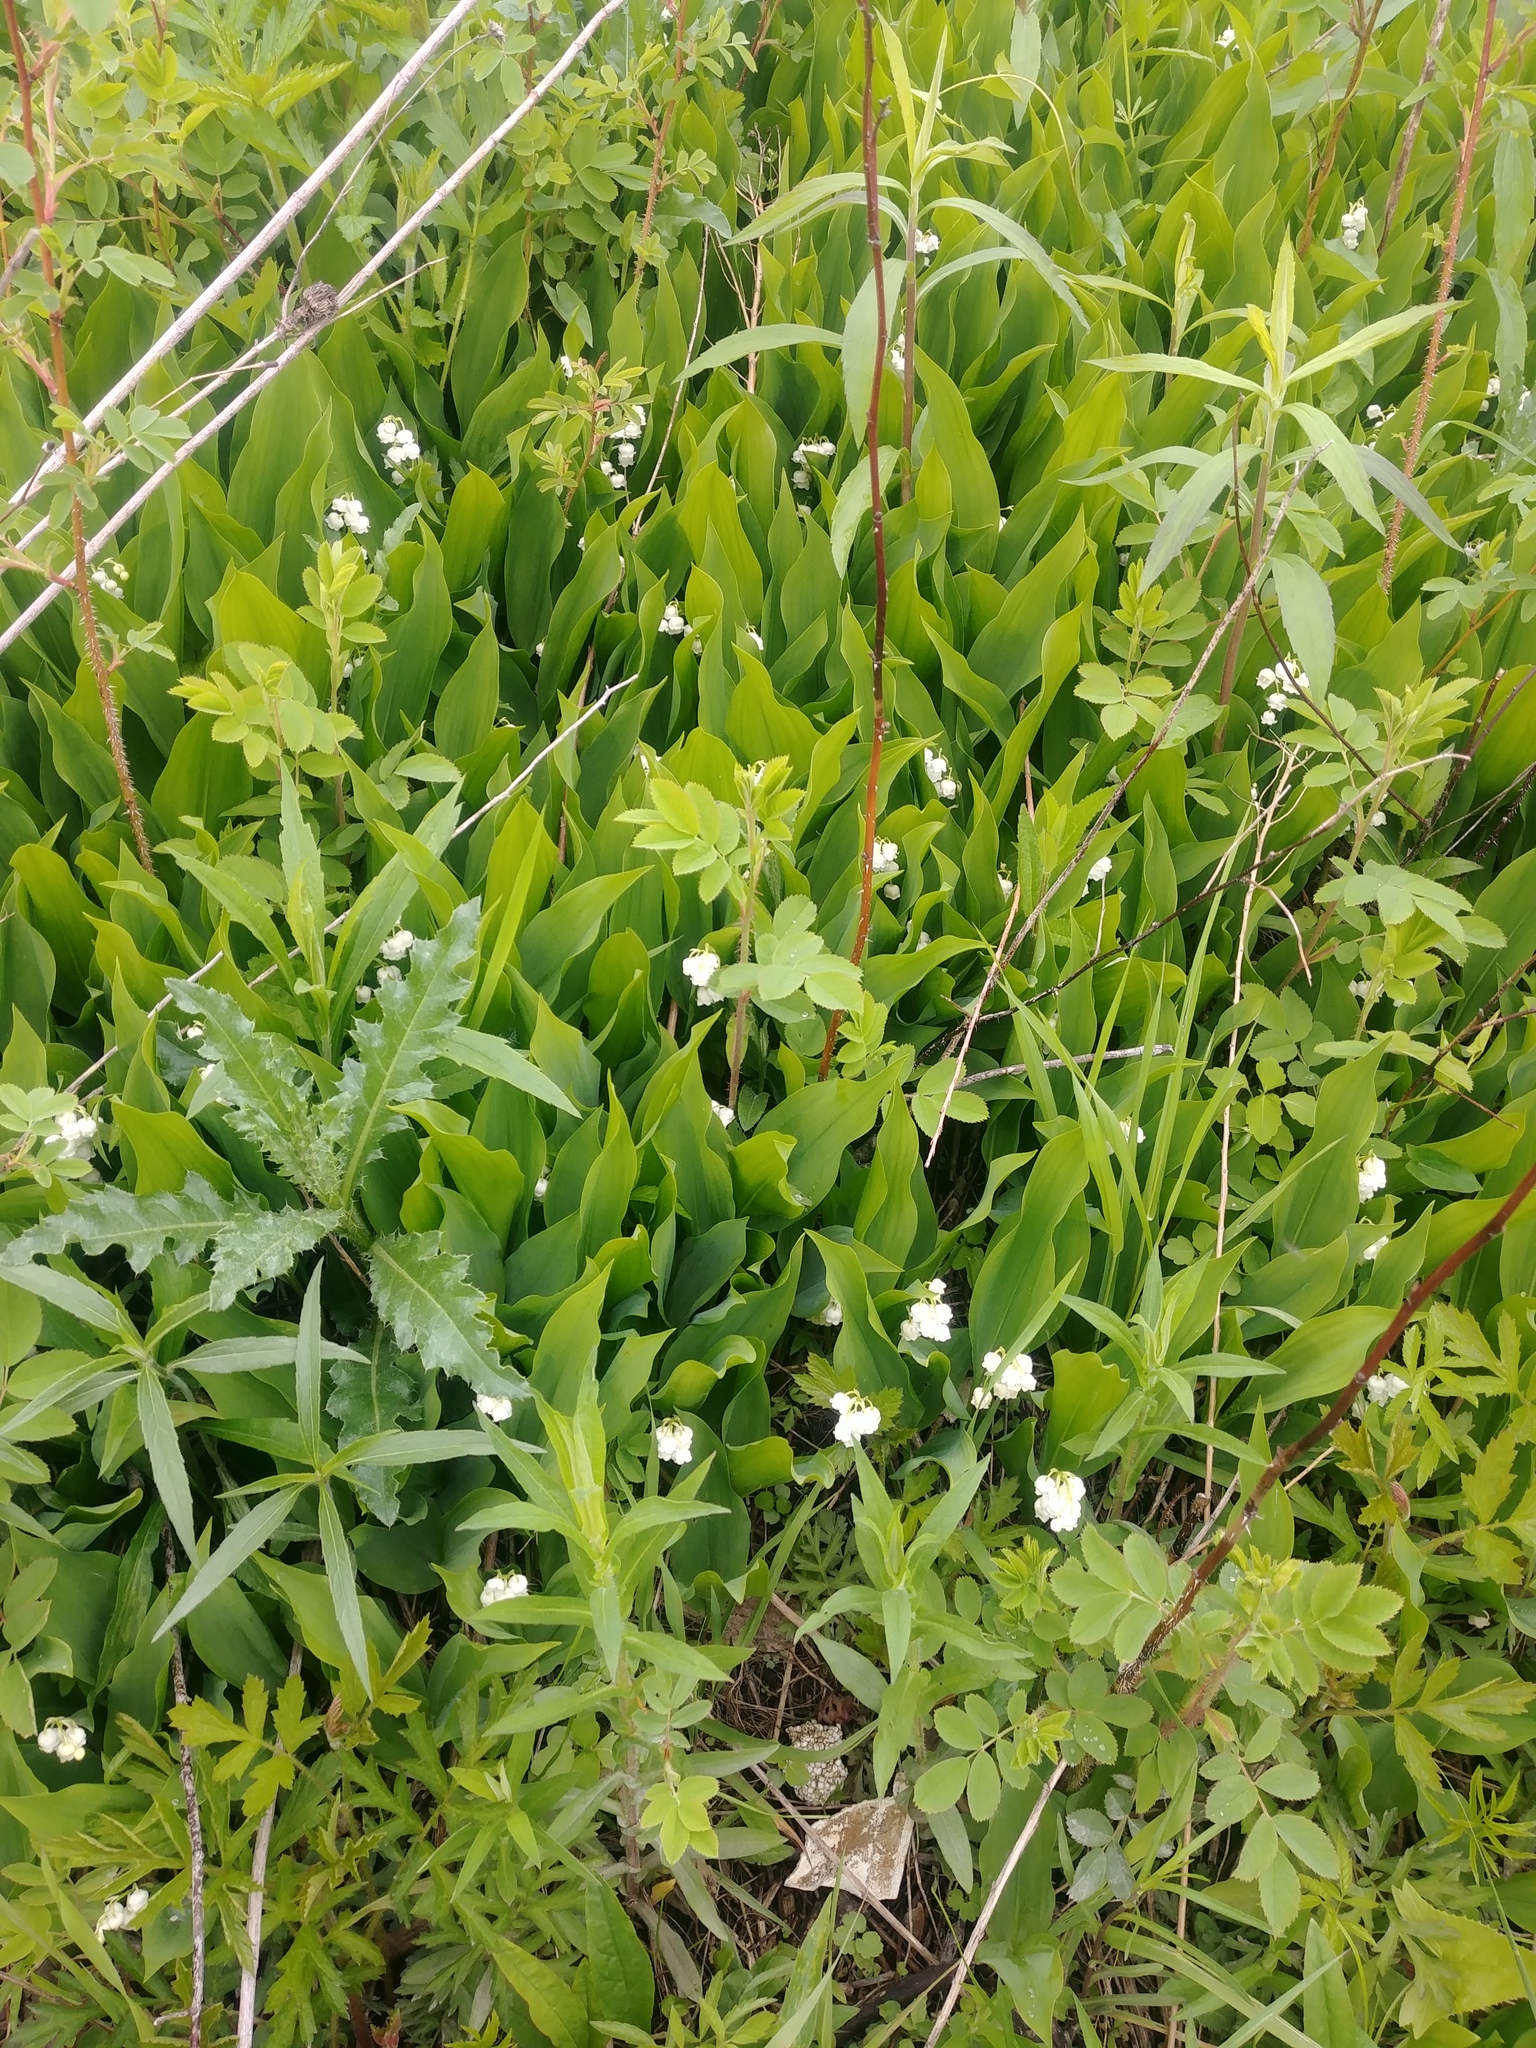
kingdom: Plantae
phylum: Tracheophyta
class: Liliopsida
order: Asparagales
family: Asparagaceae
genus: Convallaria
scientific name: Convallaria majalis
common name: Lily-of-the-valley
